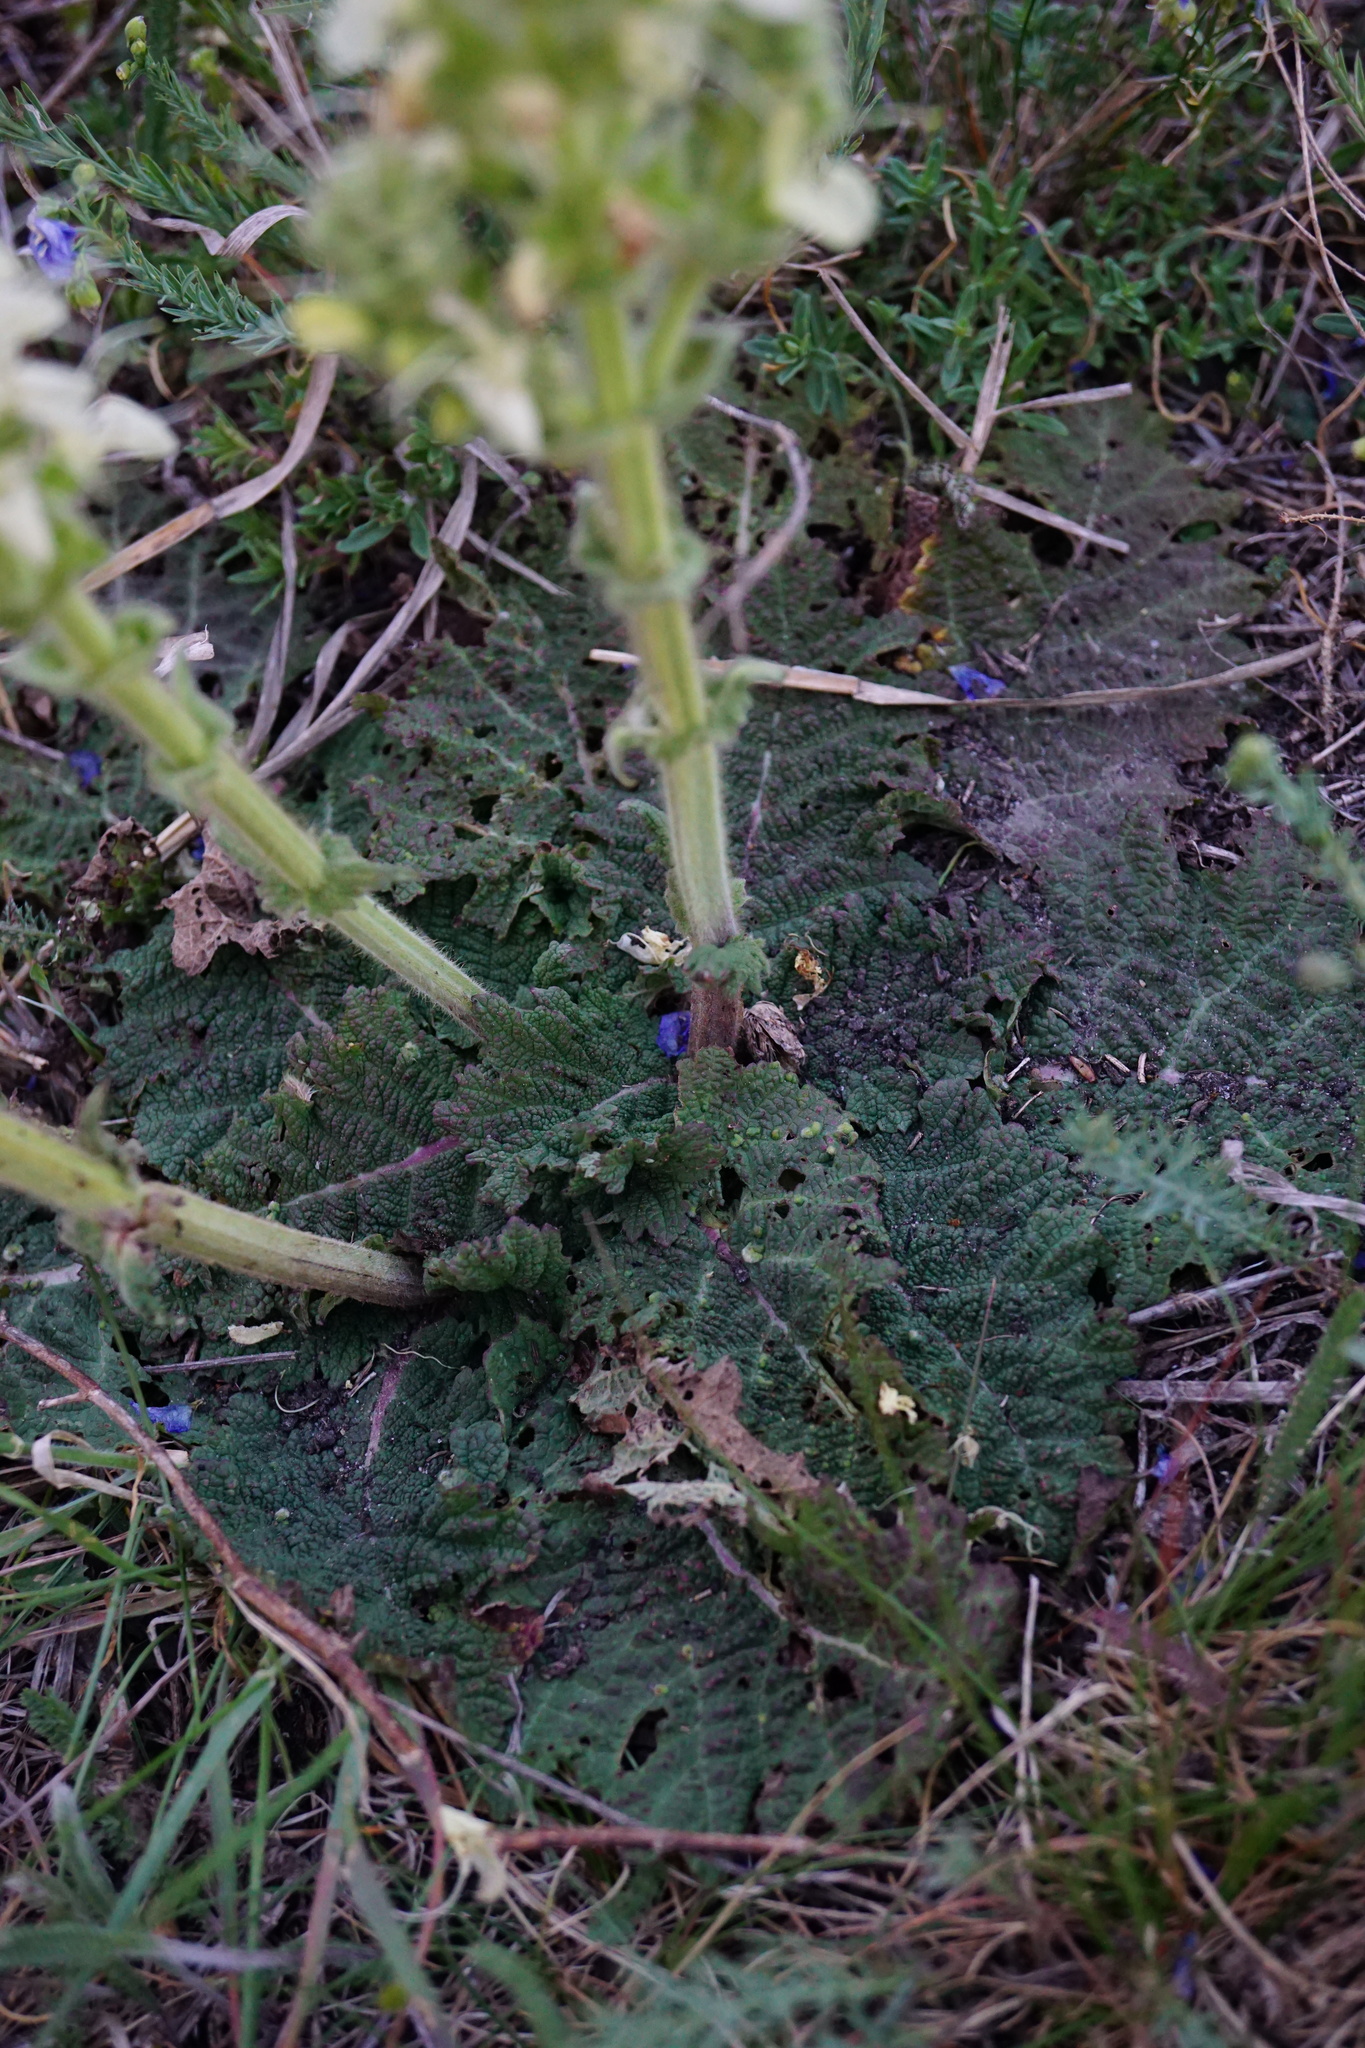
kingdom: Plantae
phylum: Tracheophyta
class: Magnoliopsida
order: Lamiales
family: Lamiaceae
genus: Salvia
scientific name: Salvia austriaca
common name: Austrian sage
